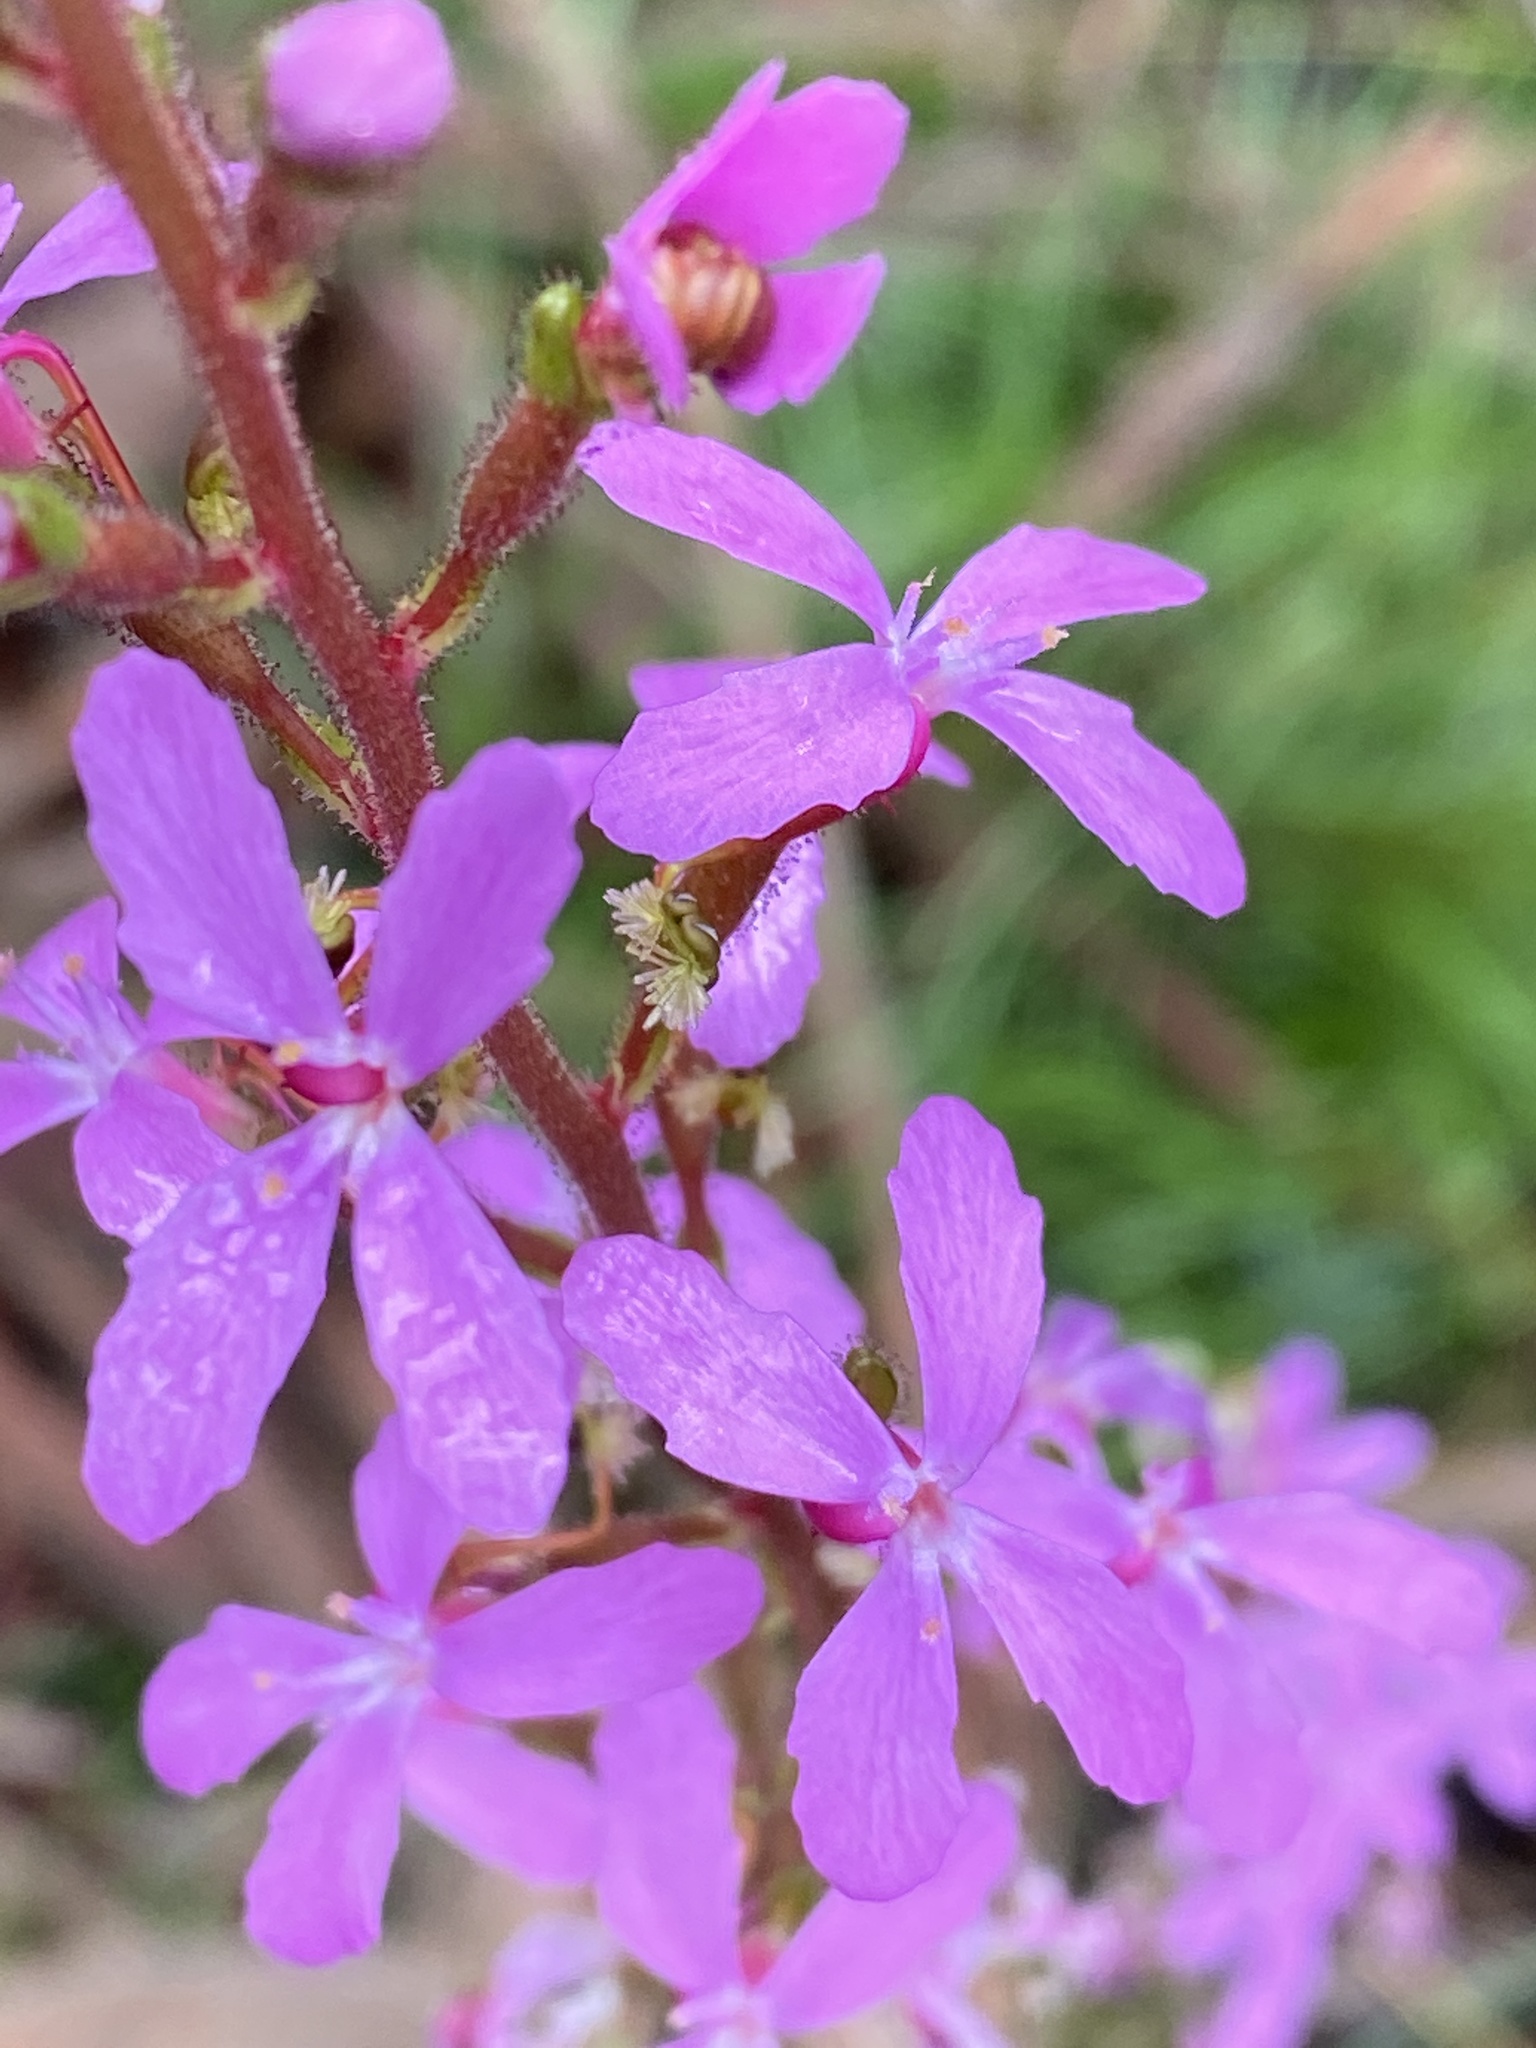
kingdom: Plantae
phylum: Tracheophyta
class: Magnoliopsida
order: Asterales
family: Stylidiaceae
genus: Stylidium
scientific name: Stylidium graminifolium
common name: Grass triggerplant
